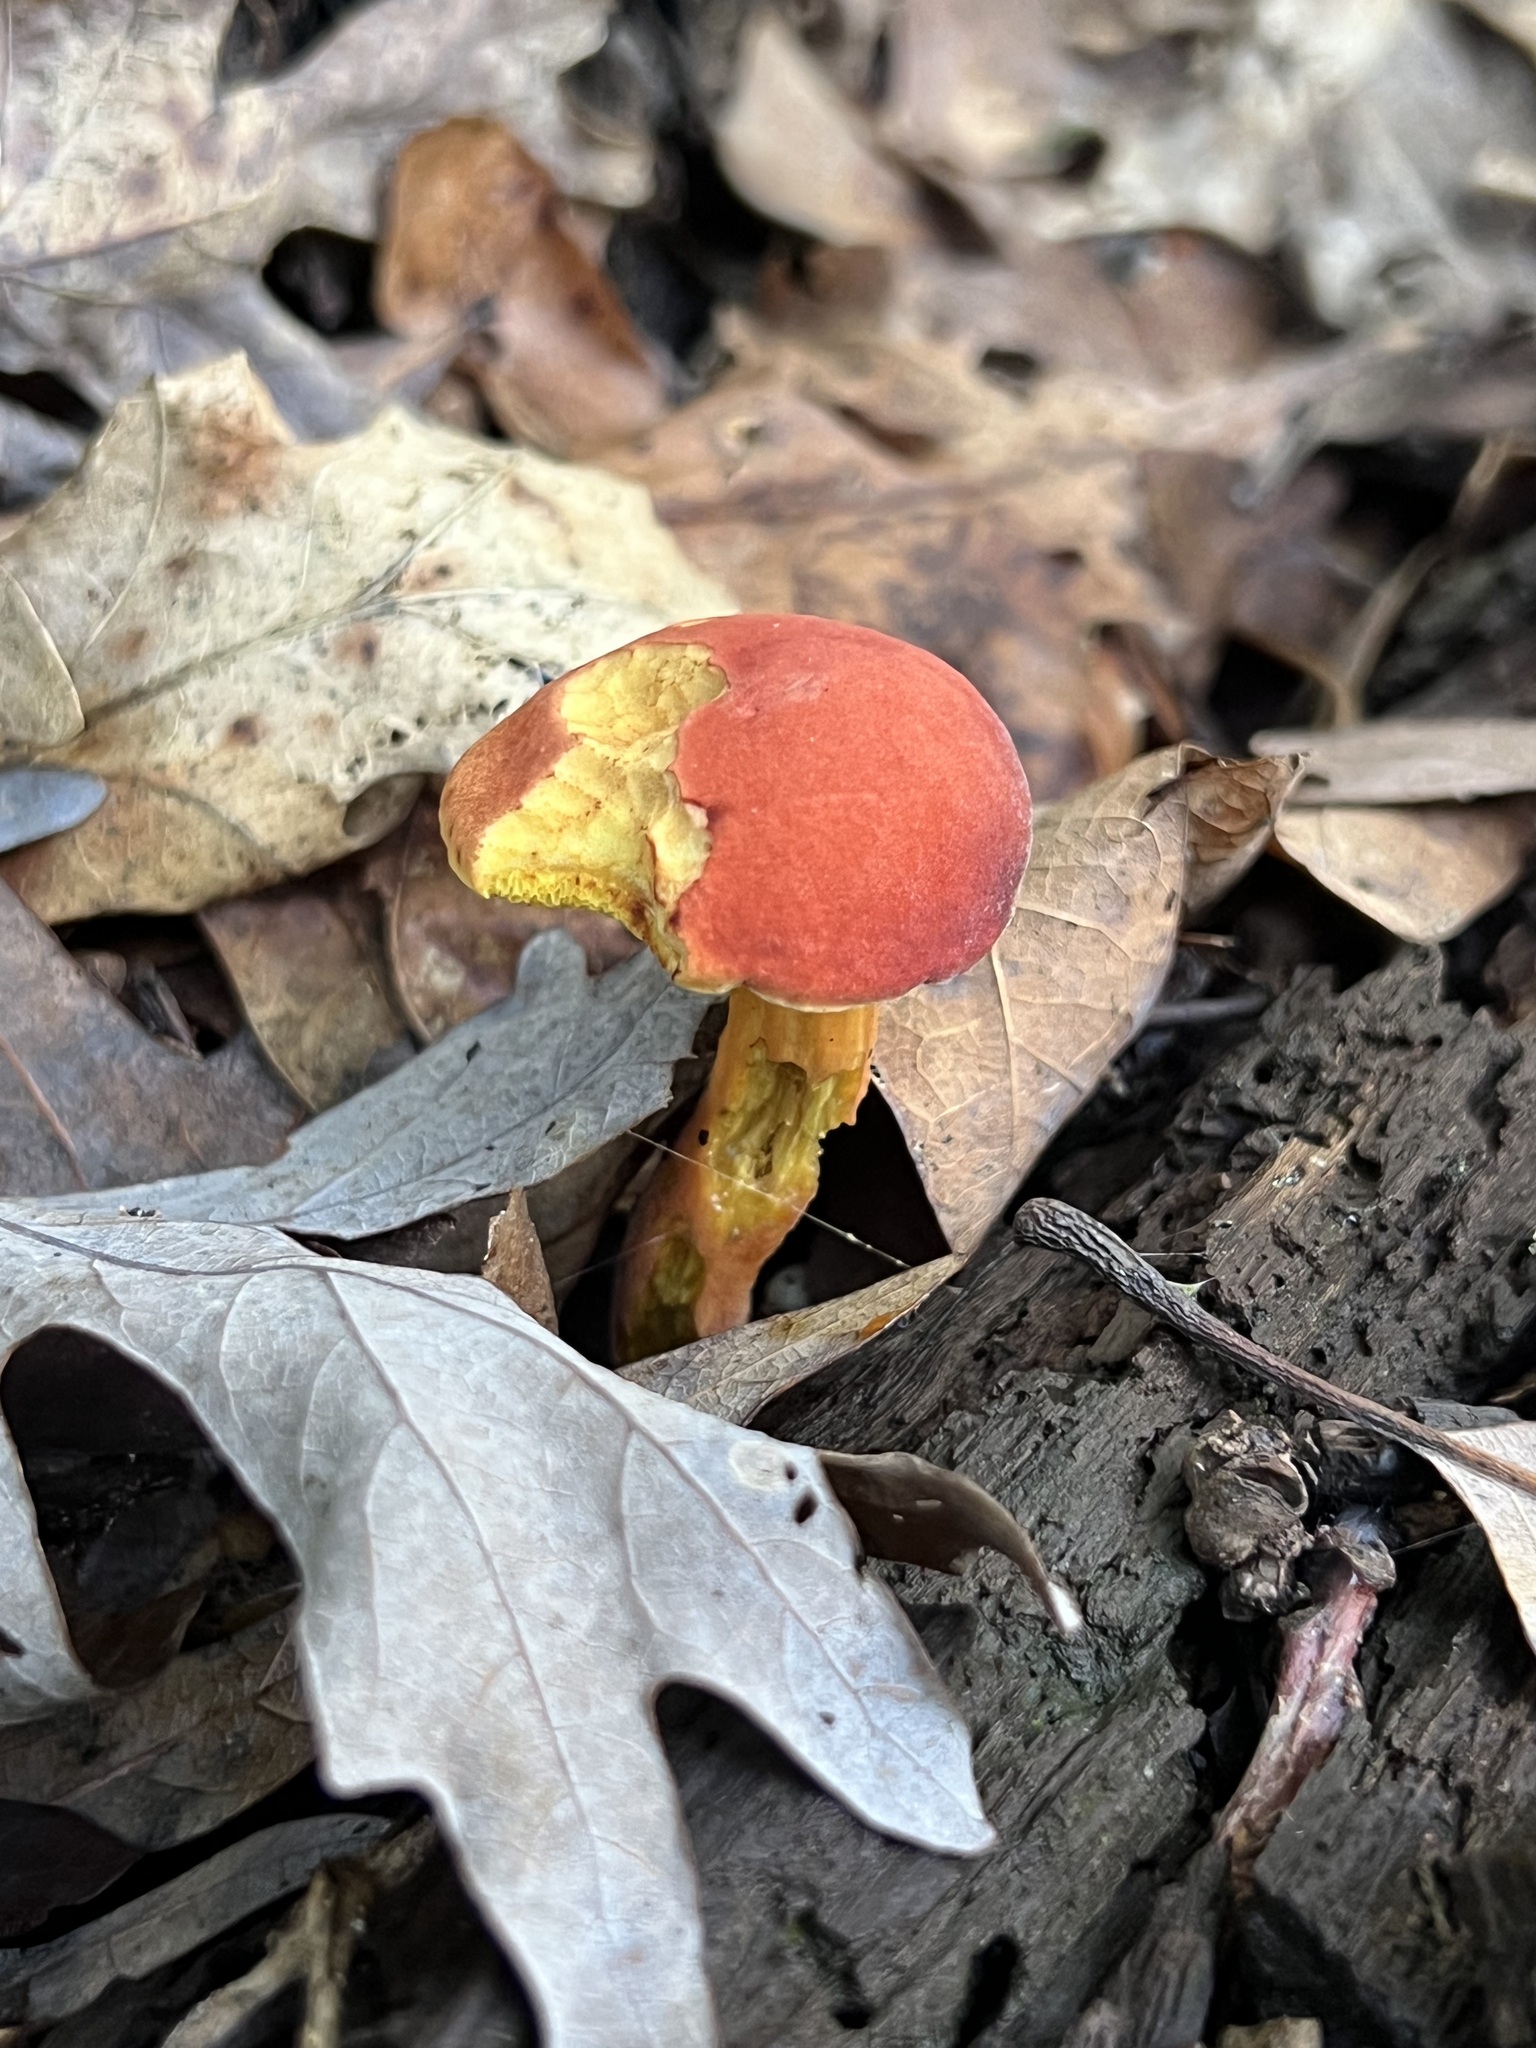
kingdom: Fungi
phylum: Basidiomycota
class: Agaricomycetes
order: Boletales
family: Boletaceae
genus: Hortiboletus
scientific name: Hortiboletus rubellus
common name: Ruby bolete
